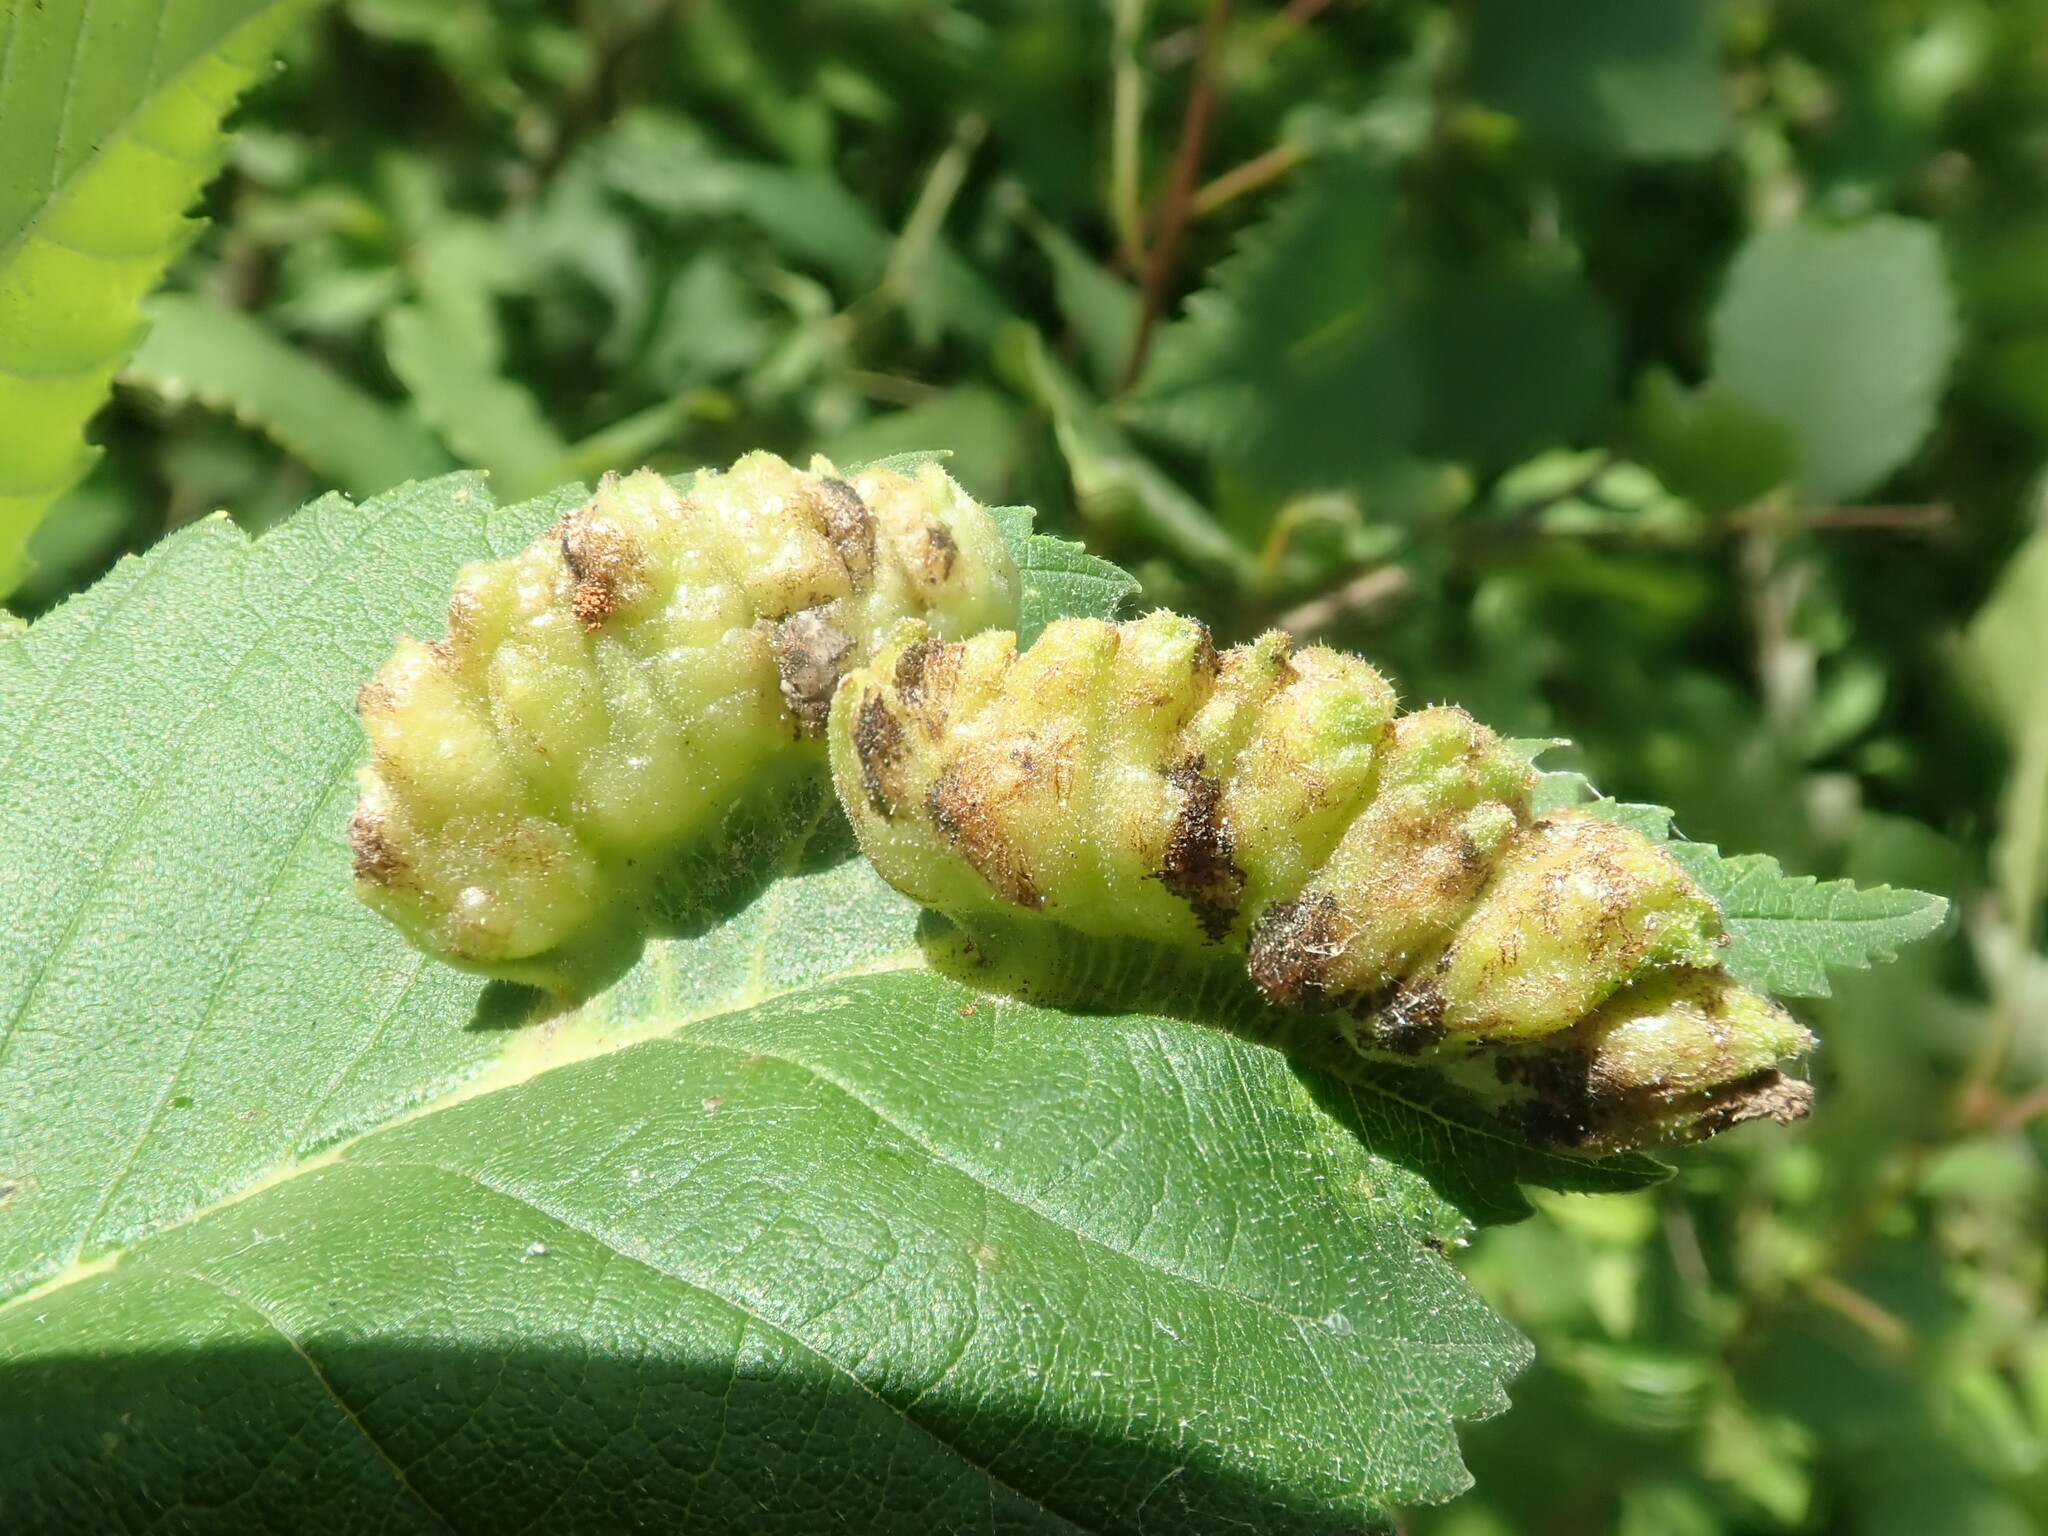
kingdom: Animalia
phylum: Arthropoda
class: Insecta
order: Hemiptera
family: Aphididae
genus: Colopha
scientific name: Colopha ulmicola
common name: Elm cockscombgall aphid
